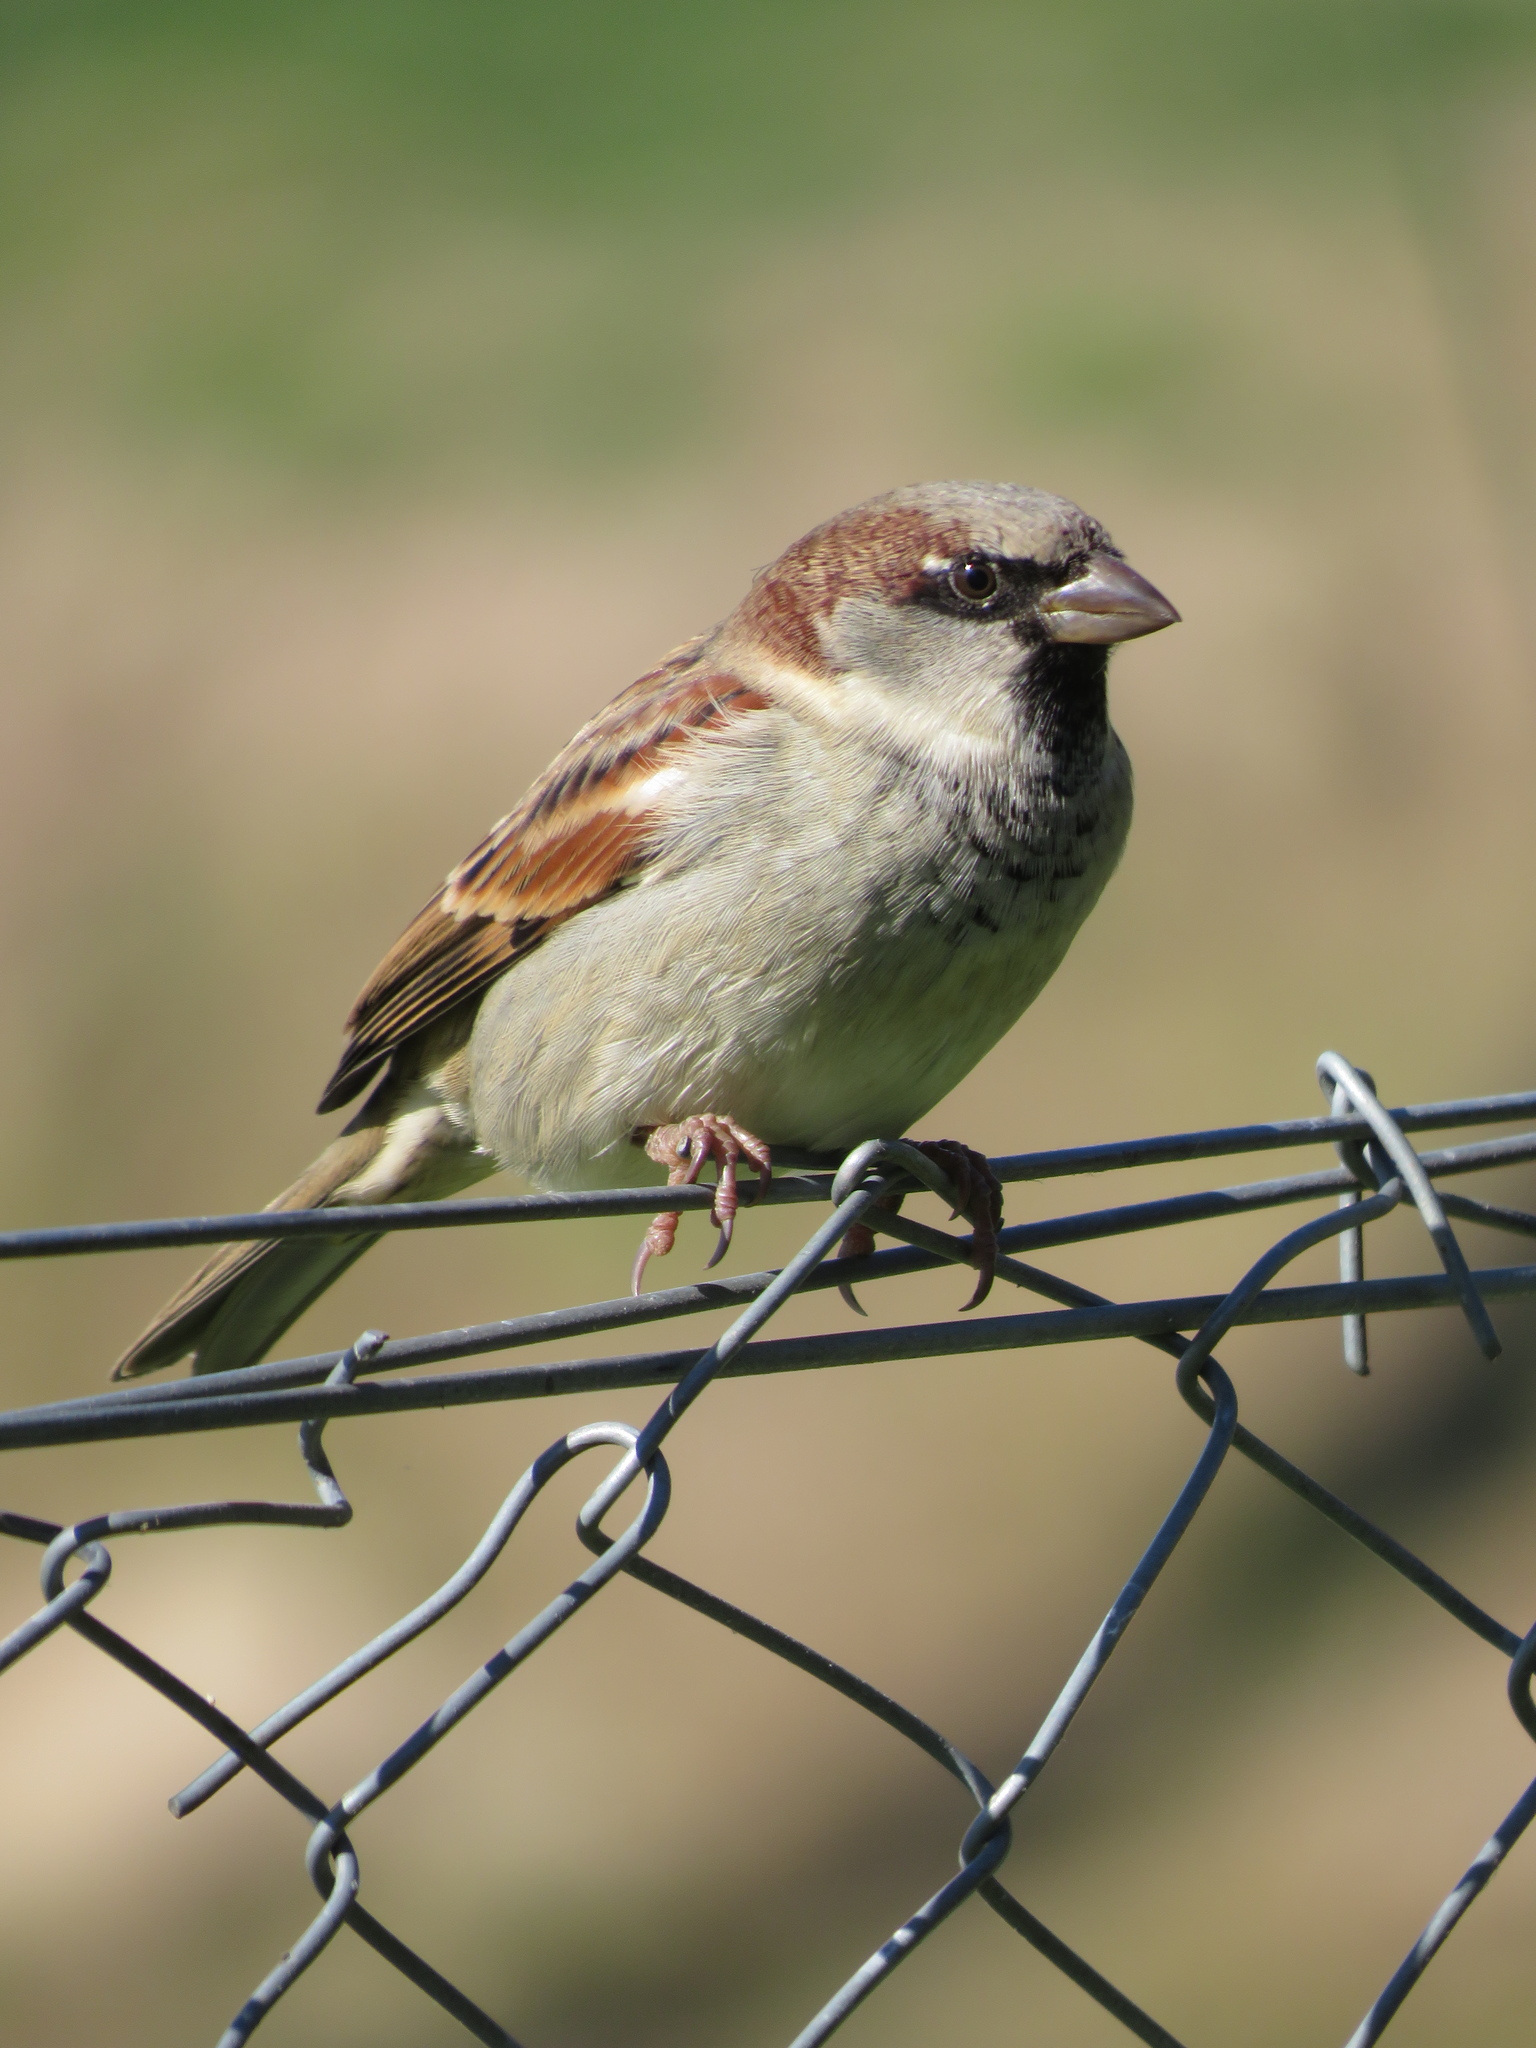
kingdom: Animalia
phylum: Chordata
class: Aves
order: Passeriformes
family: Passeridae
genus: Passer
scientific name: Passer domesticus
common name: House sparrow
